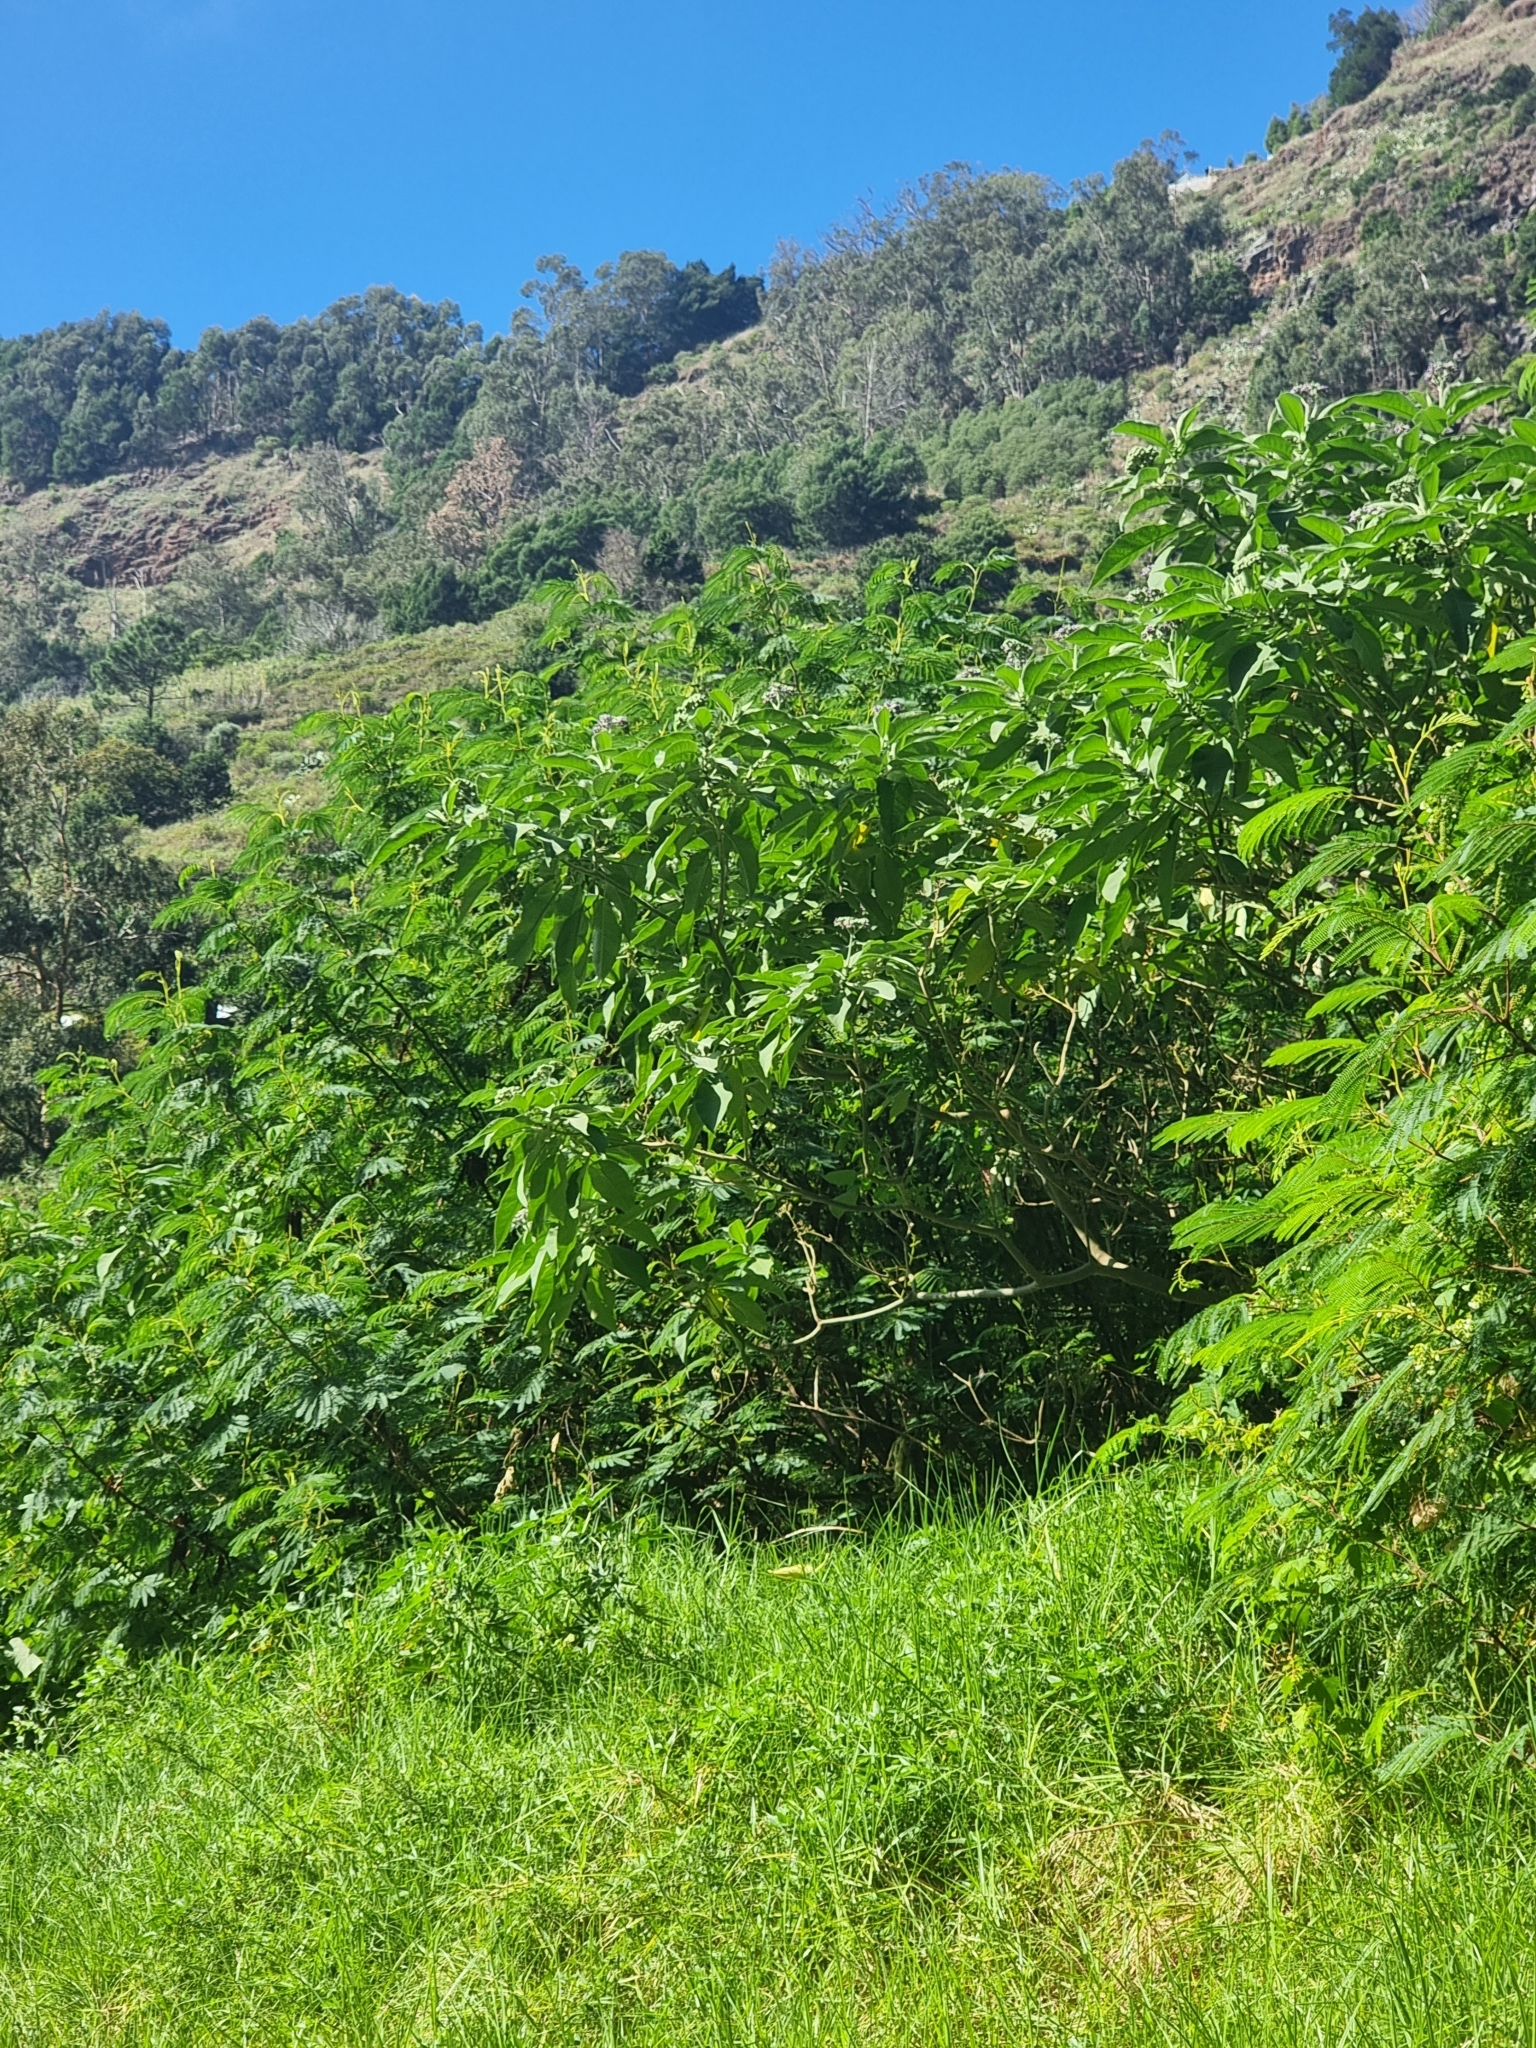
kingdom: Plantae
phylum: Tracheophyta
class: Magnoliopsida
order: Solanales
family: Solanaceae
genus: Solanum
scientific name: Solanum mauritianum
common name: Earleaf nightshade
